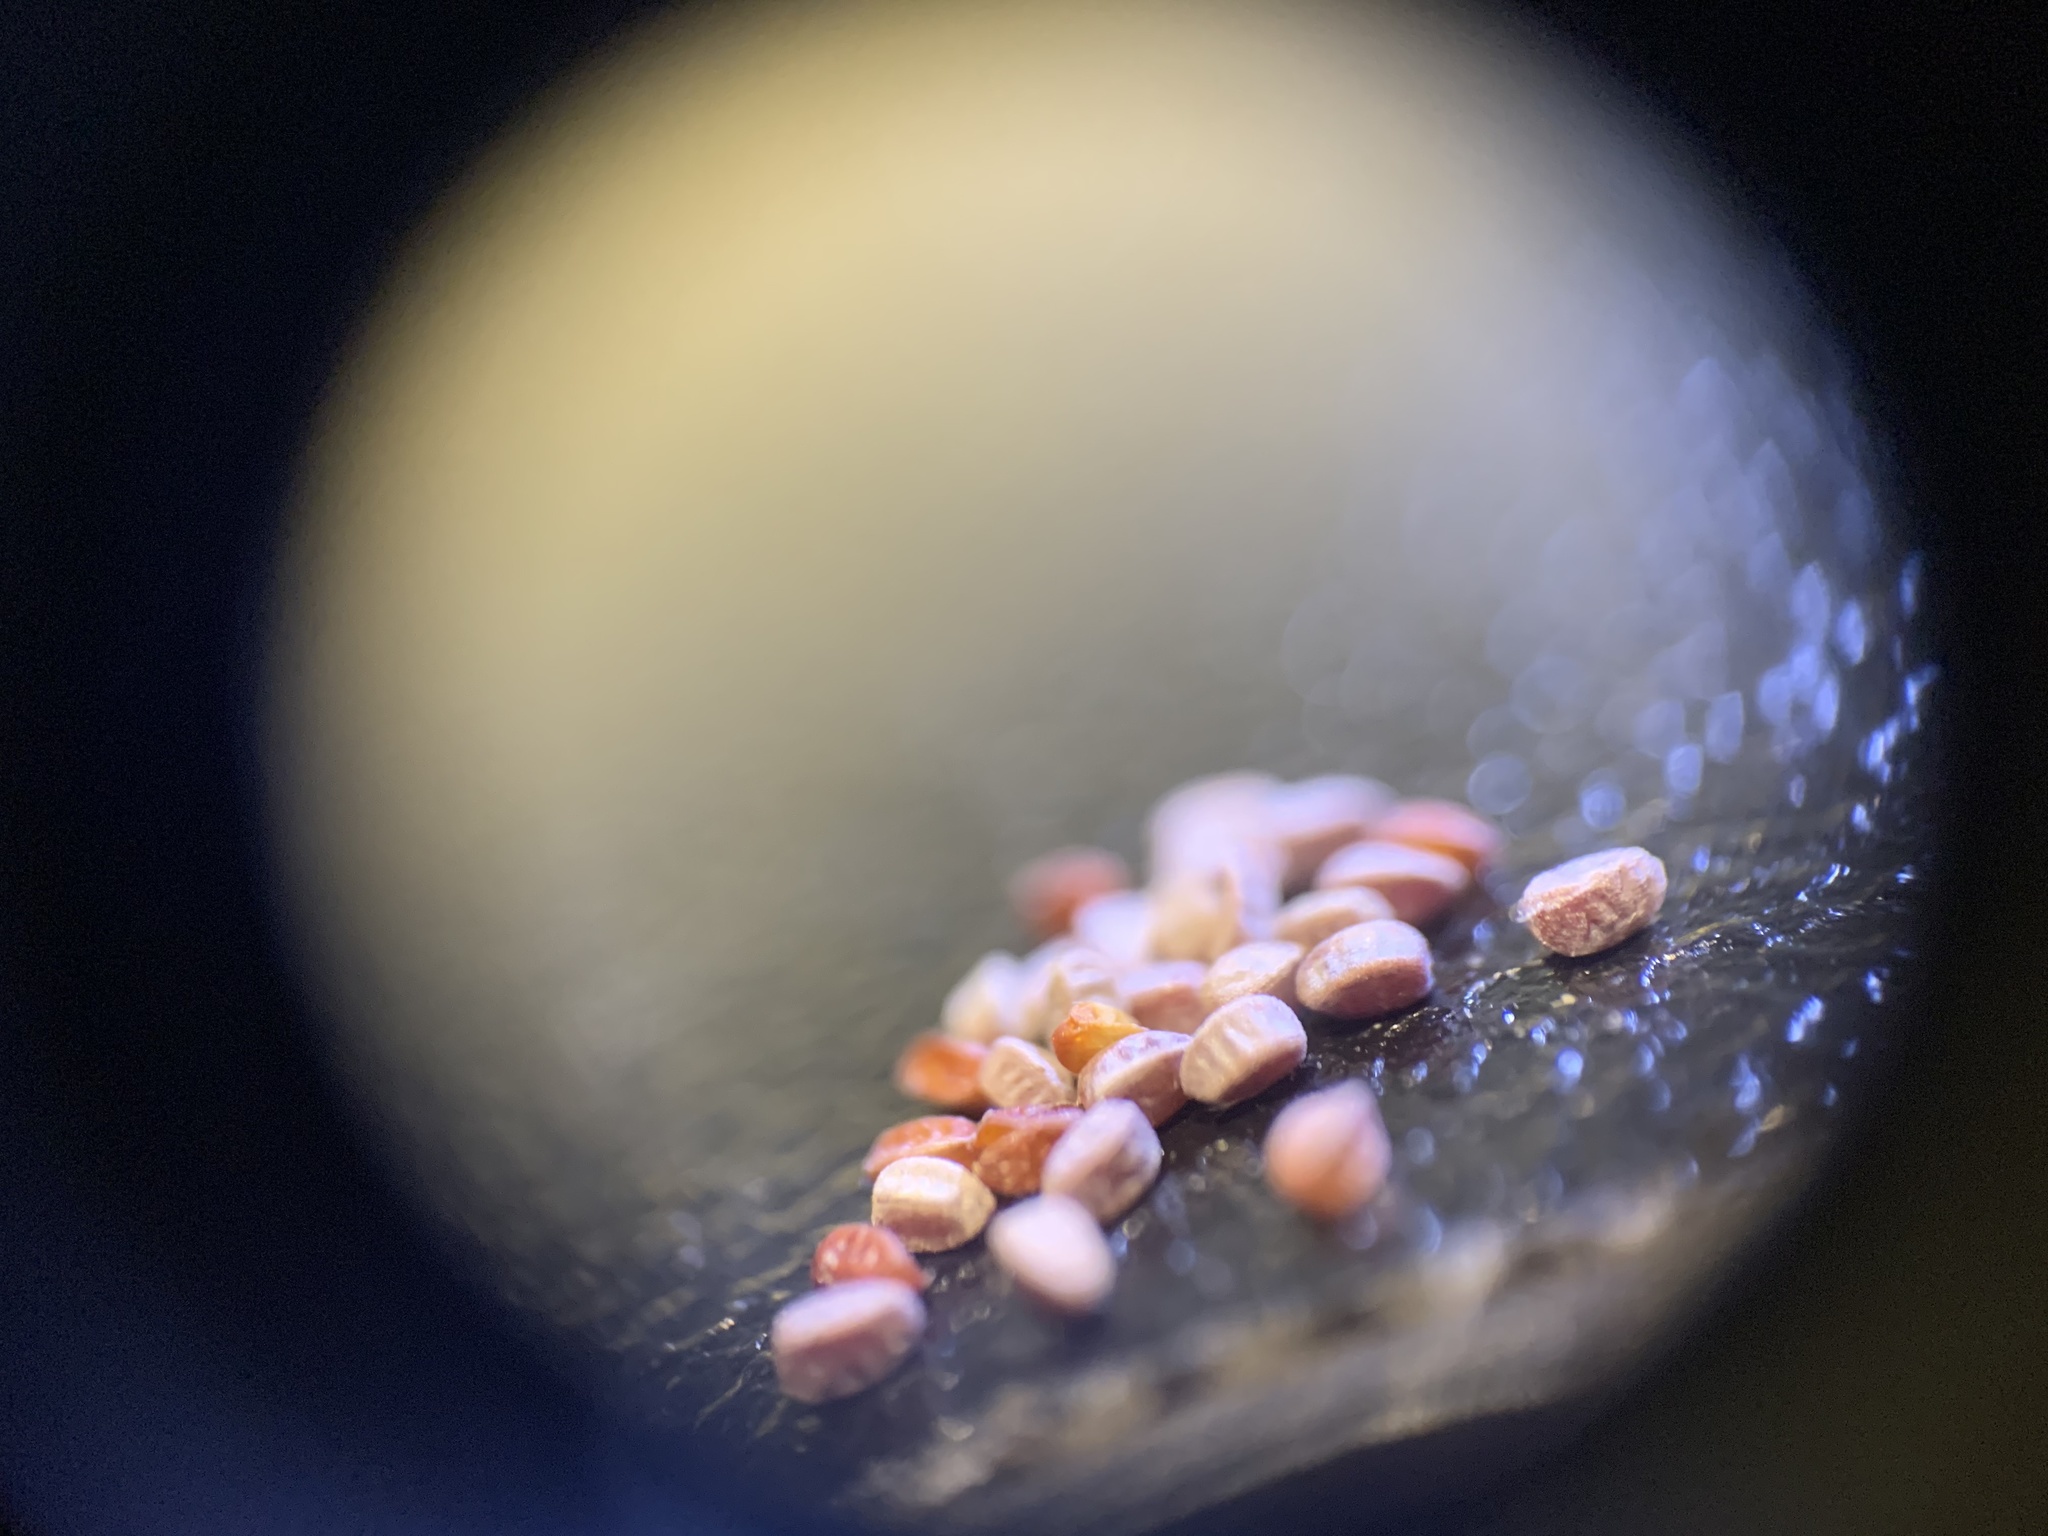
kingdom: Plantae
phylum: Tracheophyta
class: Magnoliopsida
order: Malpighiales
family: Euphorbiaceae
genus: Euphorbia
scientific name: Euphorbia maculata
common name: Spotted spurge
